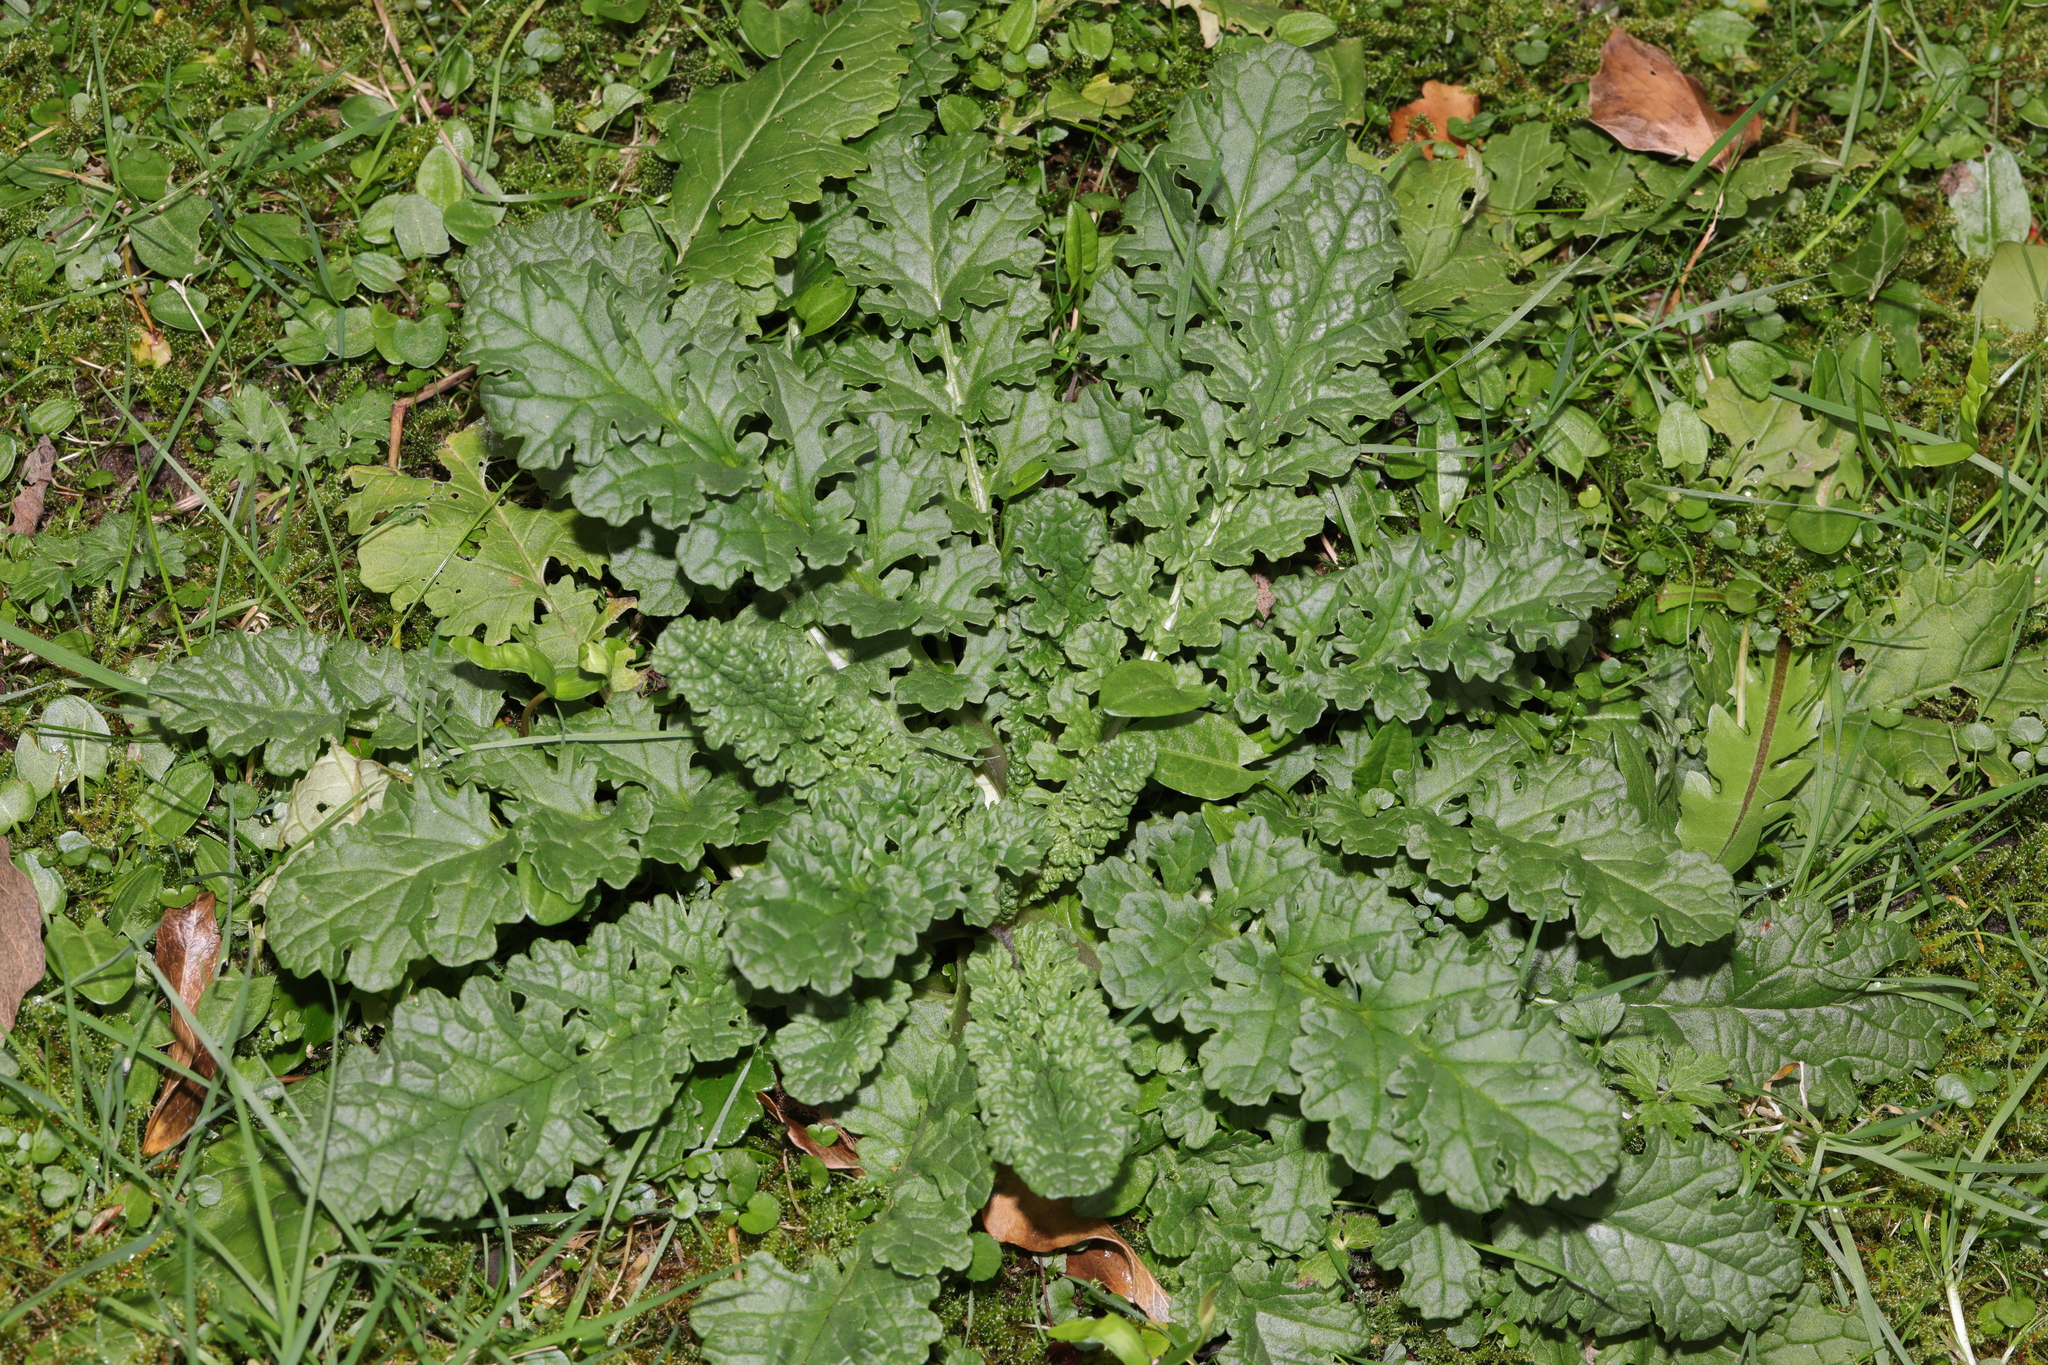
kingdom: Plantae
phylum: Tracheophyta
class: Magnoliopsida
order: Asterales
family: Asteraceae
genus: Jacobaea
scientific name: Jacobaea vulgaris
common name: Stinking willie
